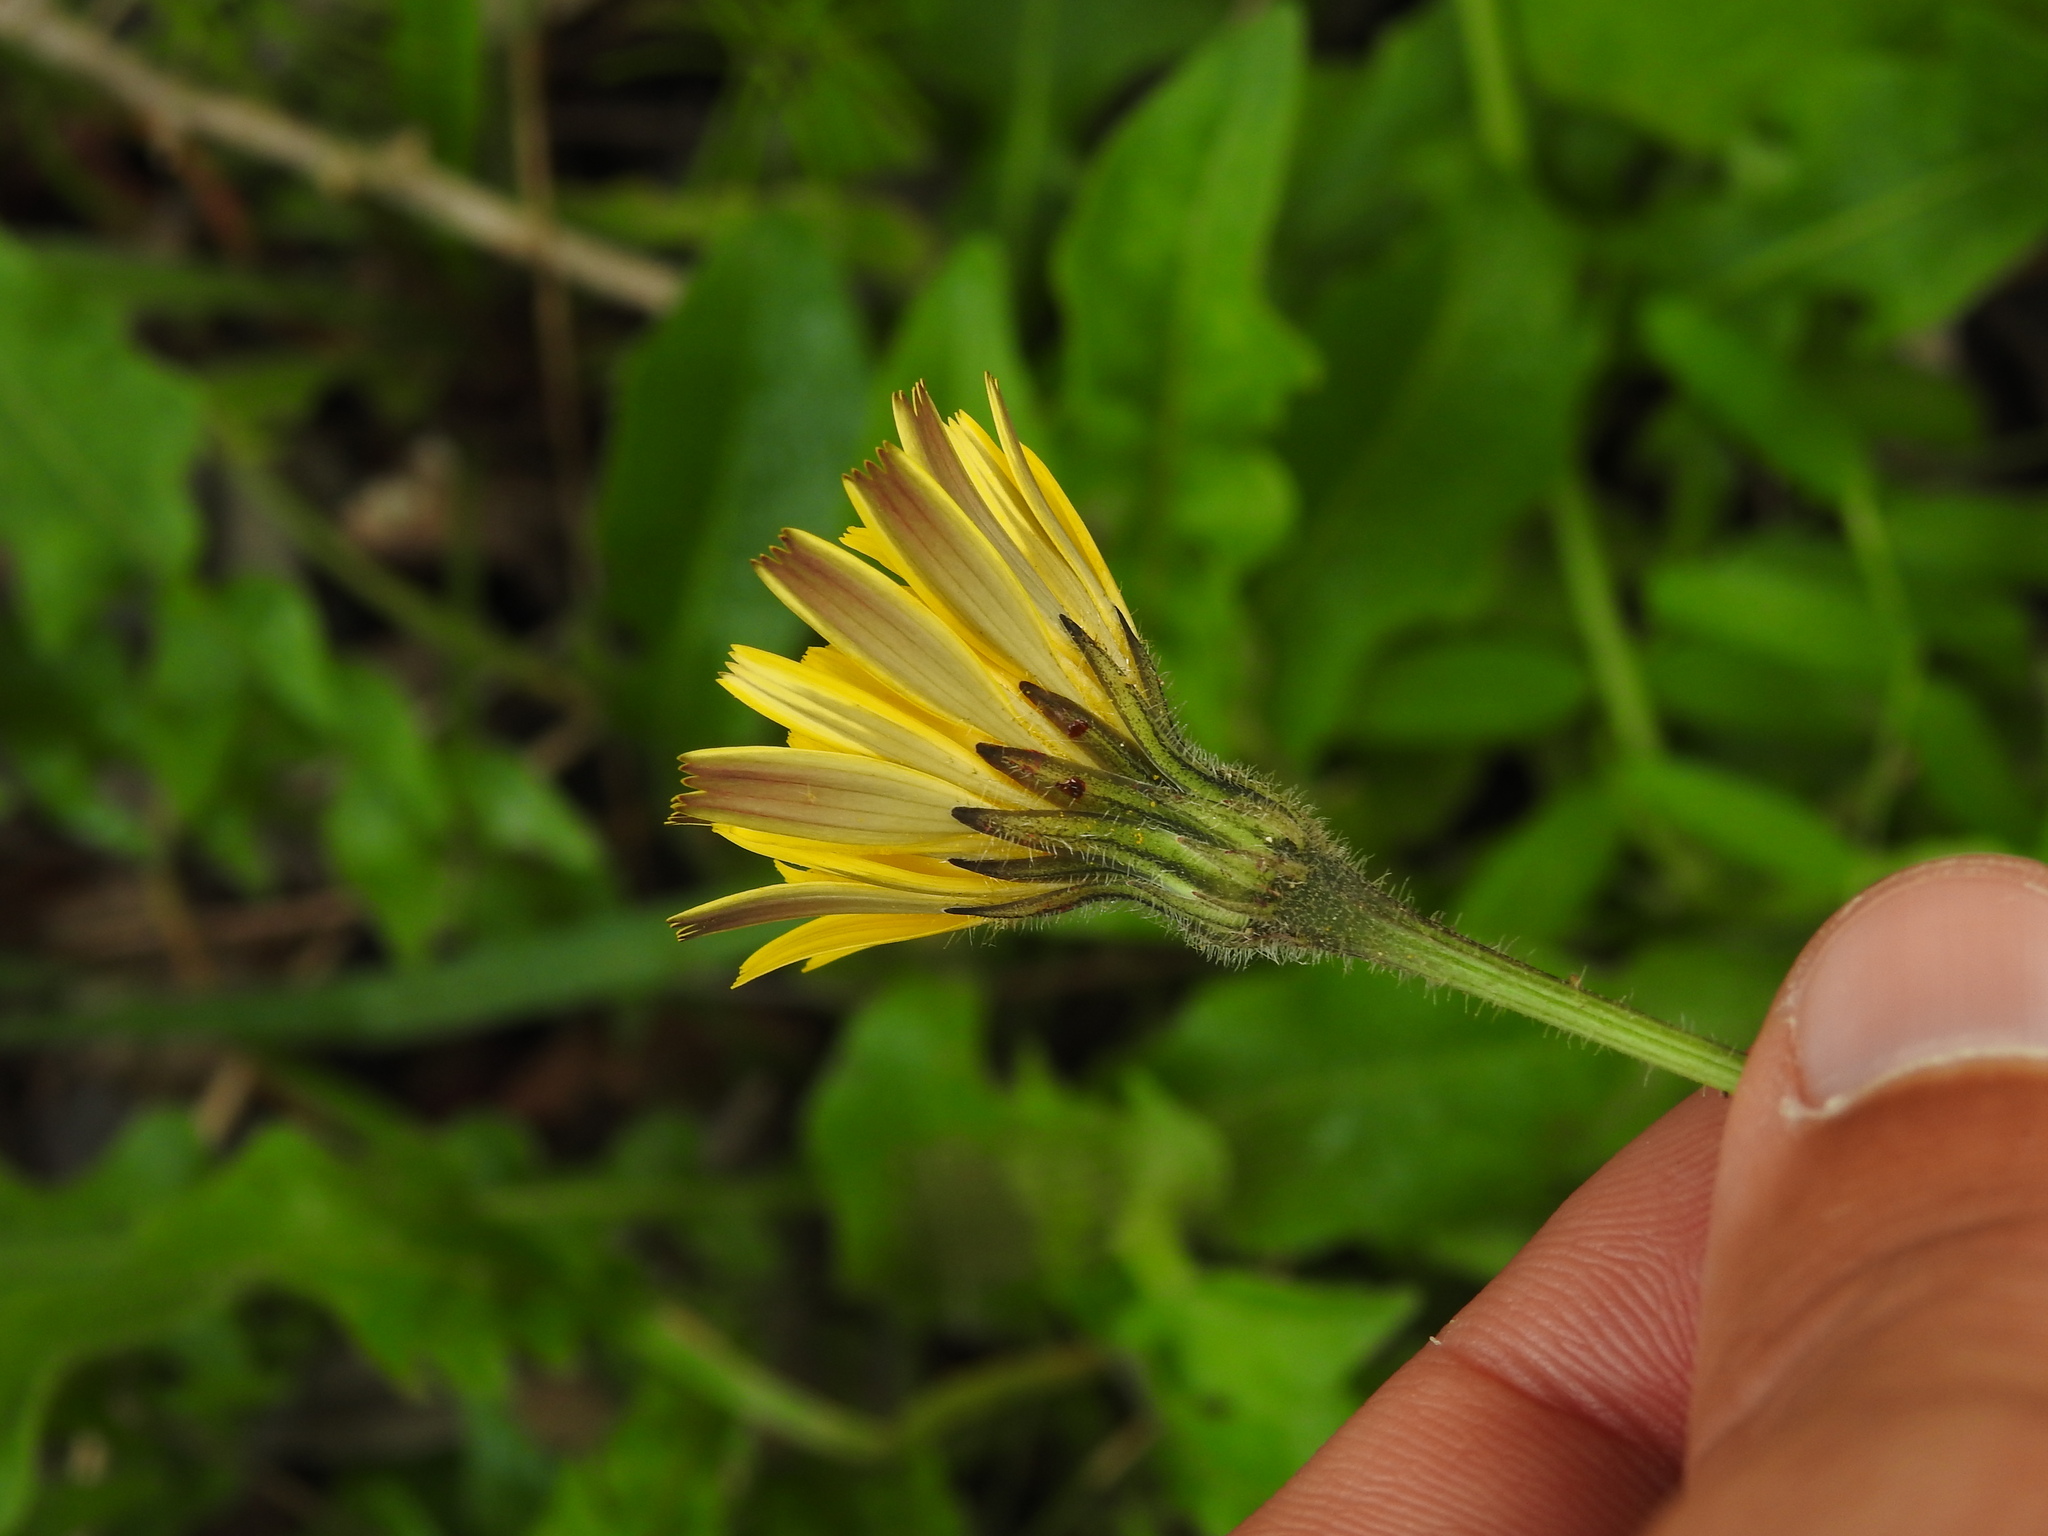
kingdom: Plantae
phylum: Tracheophyta
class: Magnoliopsida
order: Asterales
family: Asteraceae
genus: Leontodon
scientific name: Leontodon tuberosus
